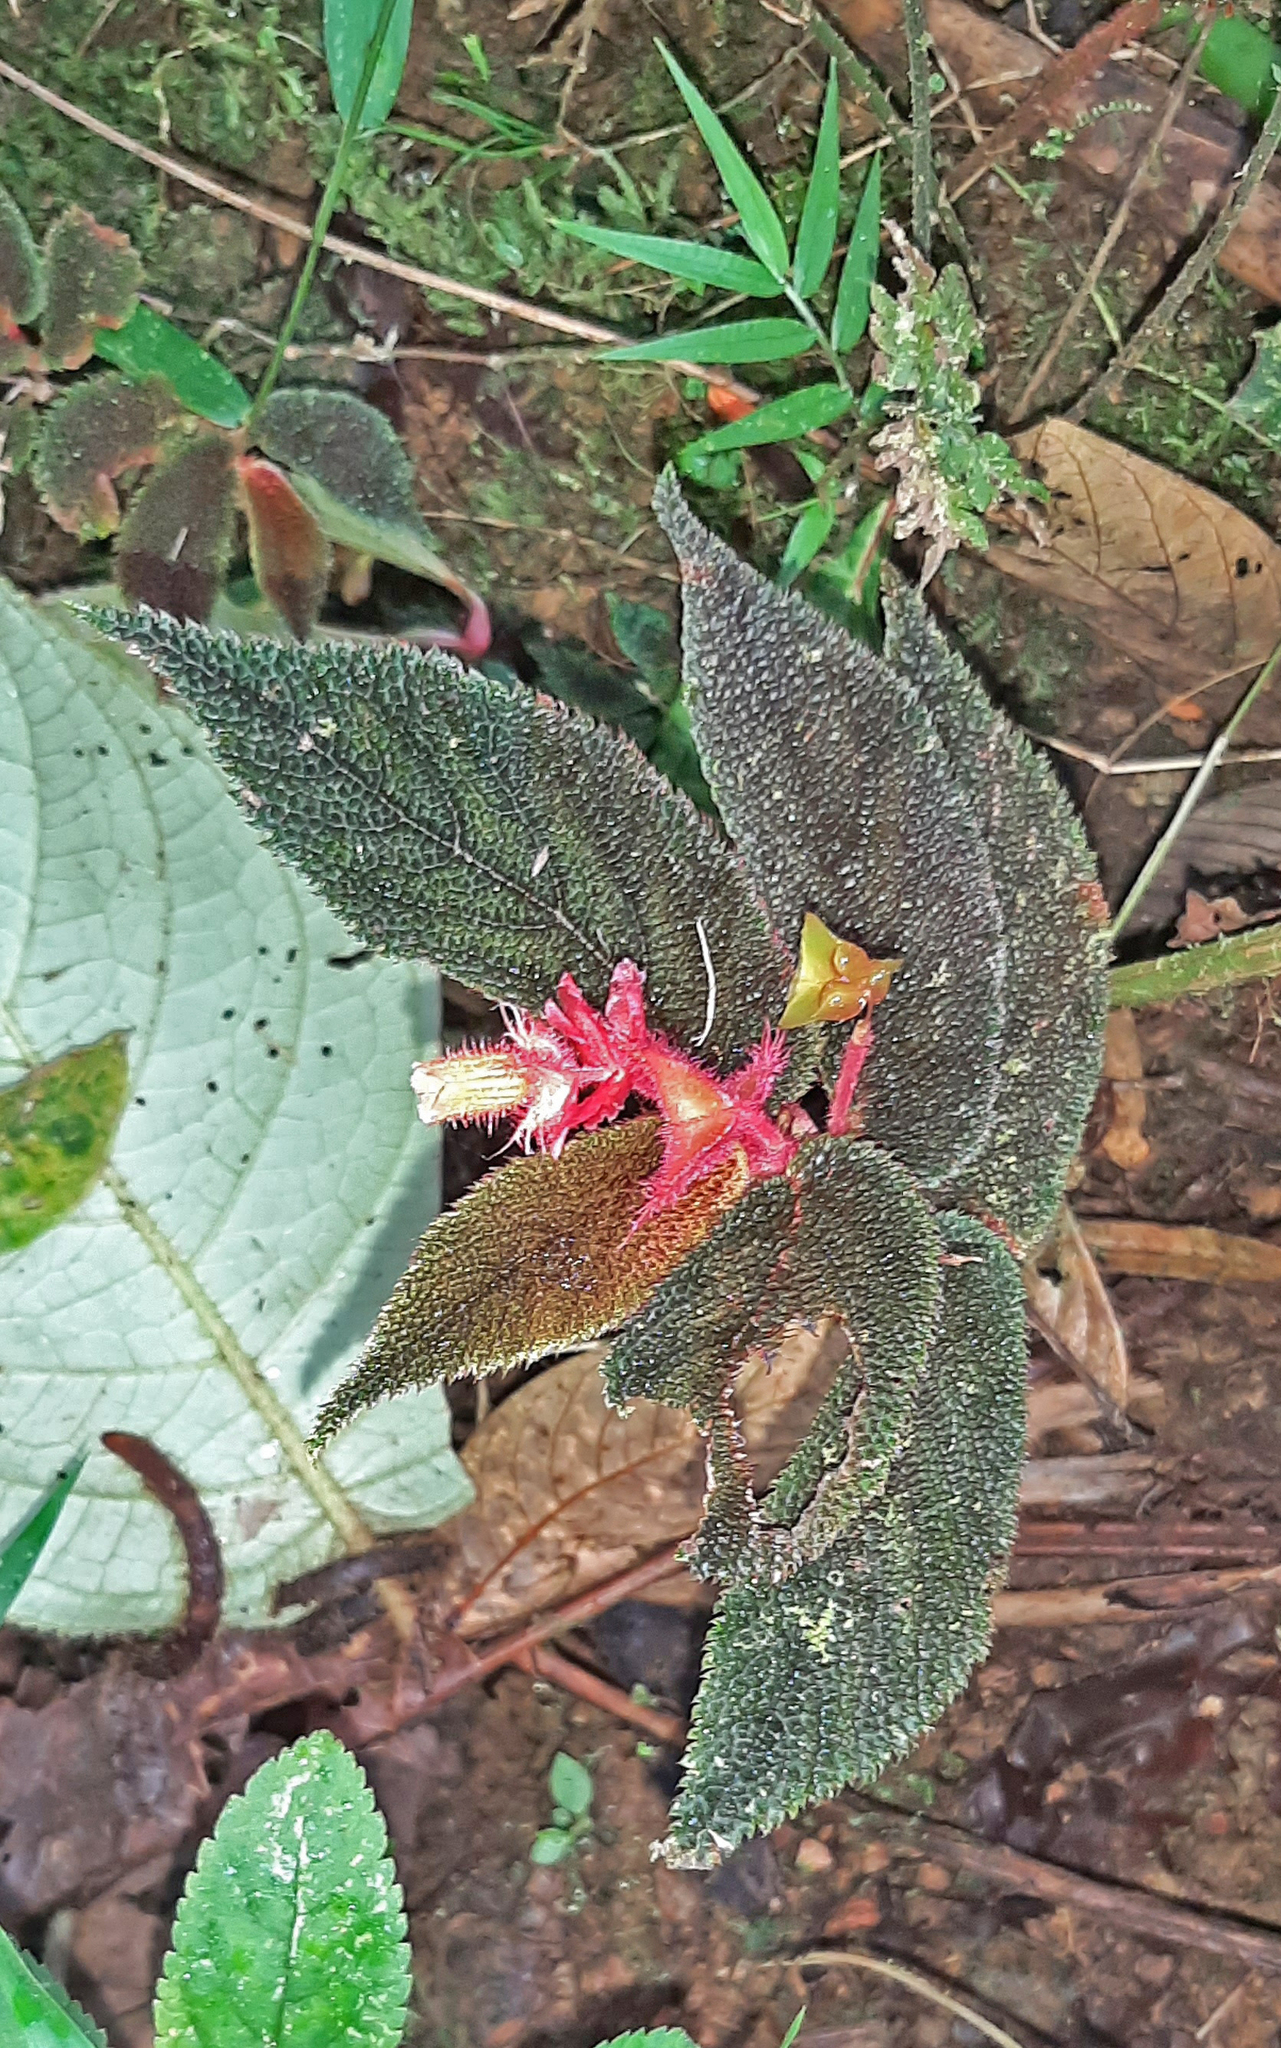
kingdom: Plantae
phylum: Tracheophyta
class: Magnoliopsida
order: Cucurbitales
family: Begoniaceae
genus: Begonia
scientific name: Begonia lehmannii
